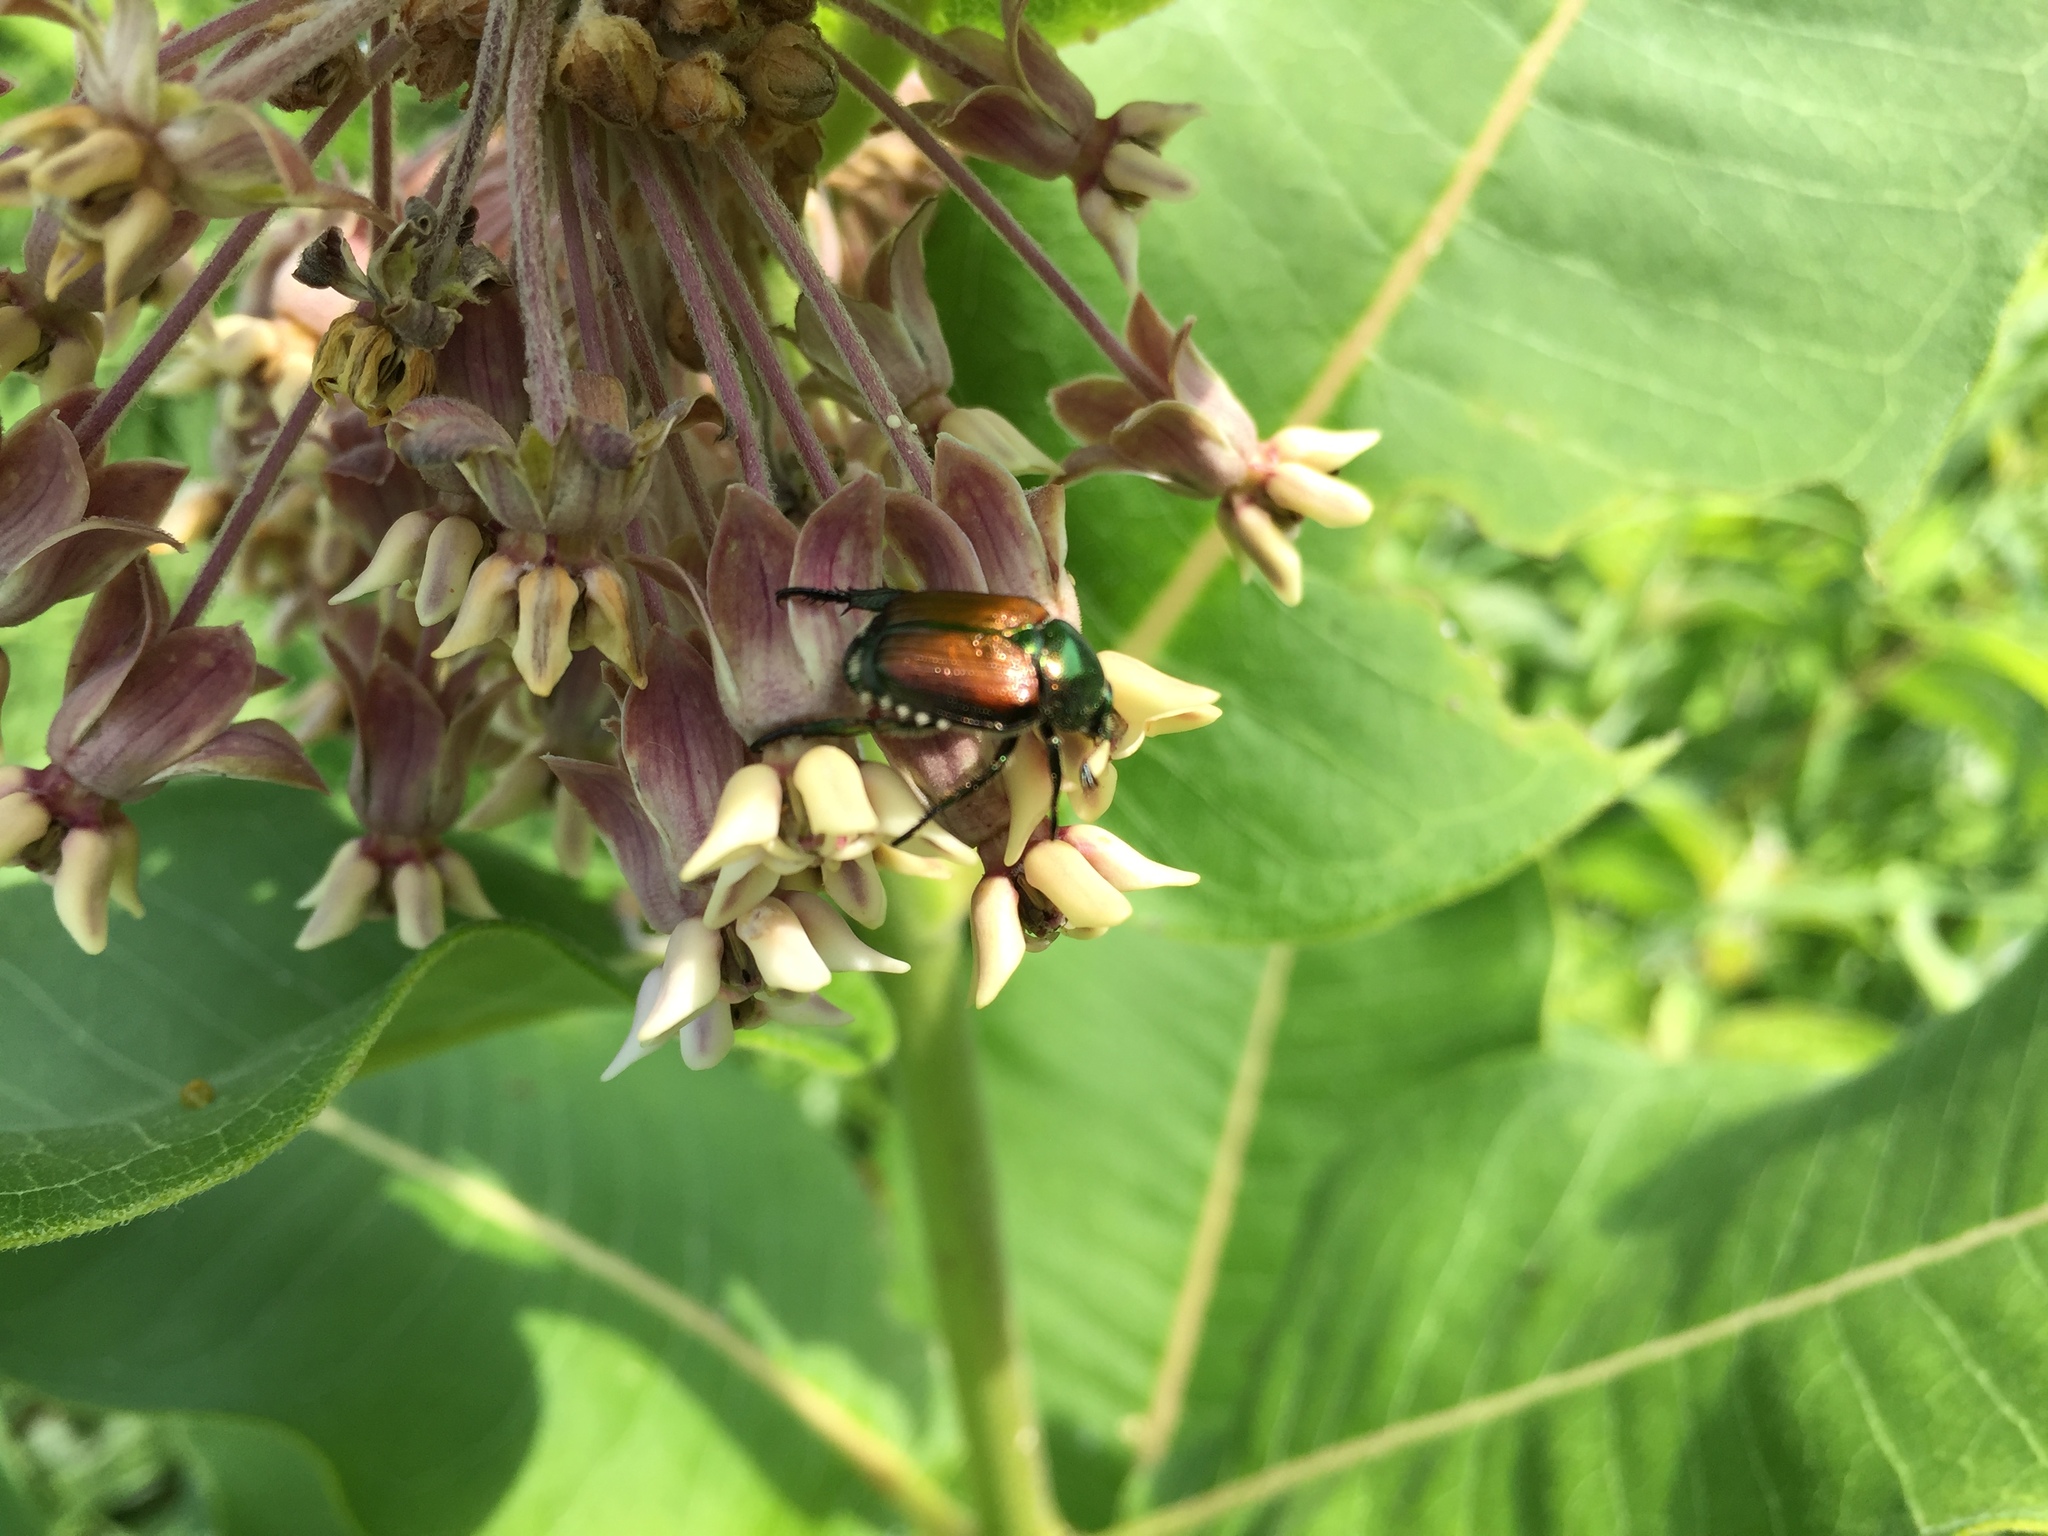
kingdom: Animalia
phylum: Arthropoda
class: Insecta
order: Coleoptera
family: Scarabaeidae
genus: Popillia
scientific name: Popillia japonica
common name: Japanese beetle
